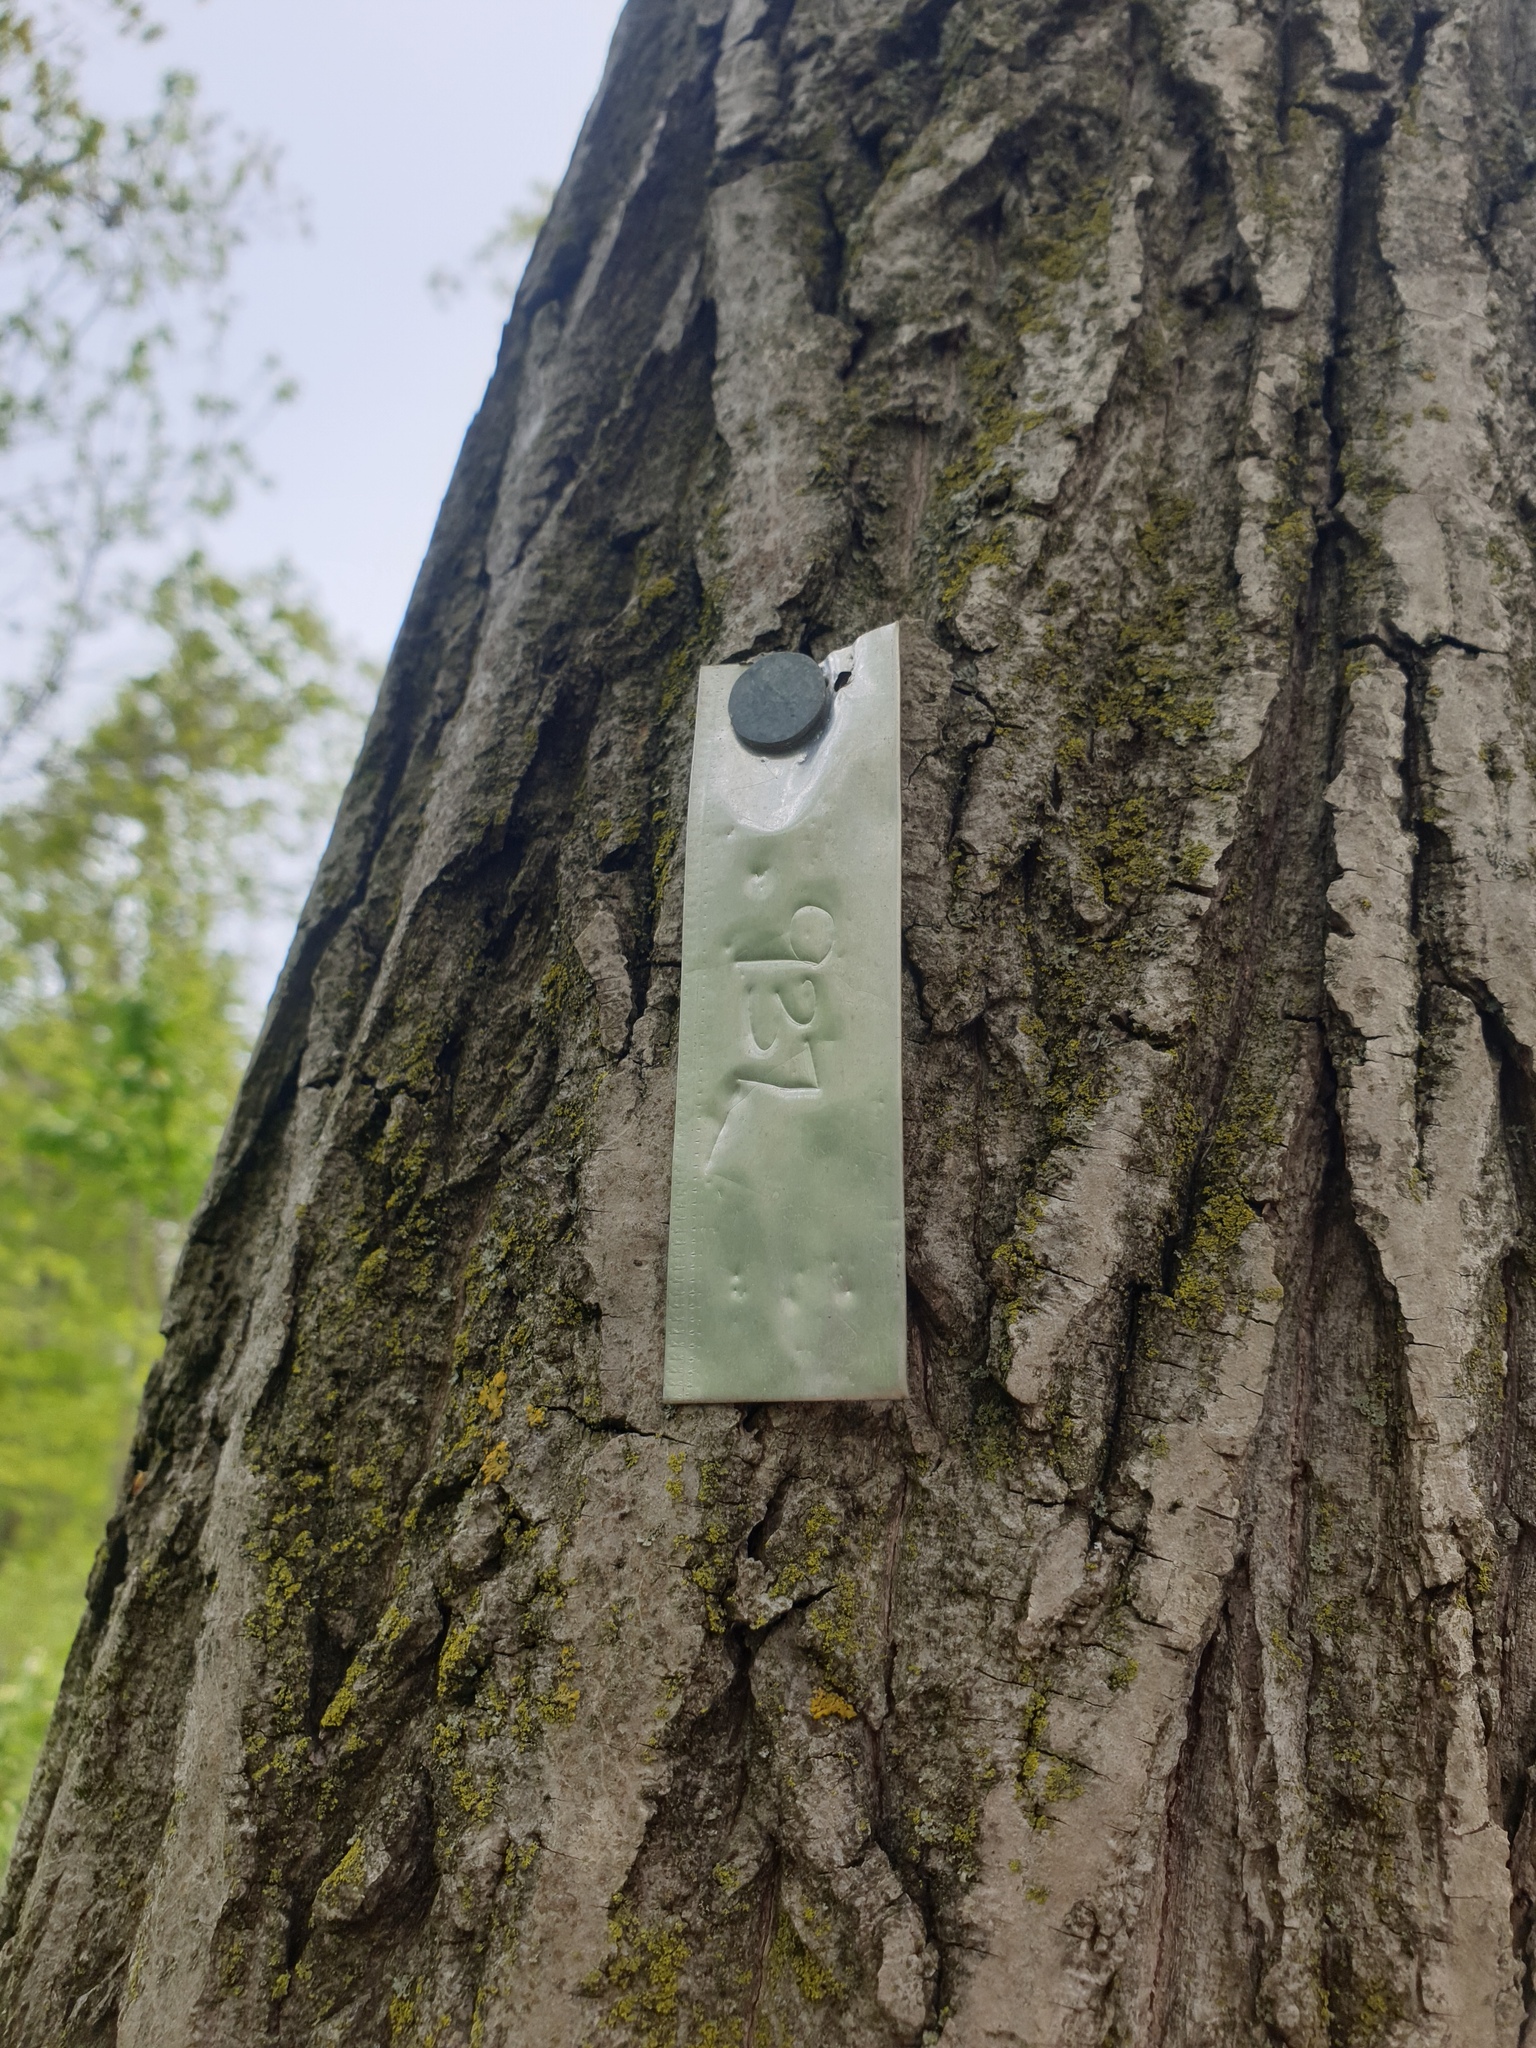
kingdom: Plantae
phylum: Tracheophyta
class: Magnoliopsida
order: Fagales
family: Juglandaceae
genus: Juglans
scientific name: Juglans cinerea
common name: Butternut
